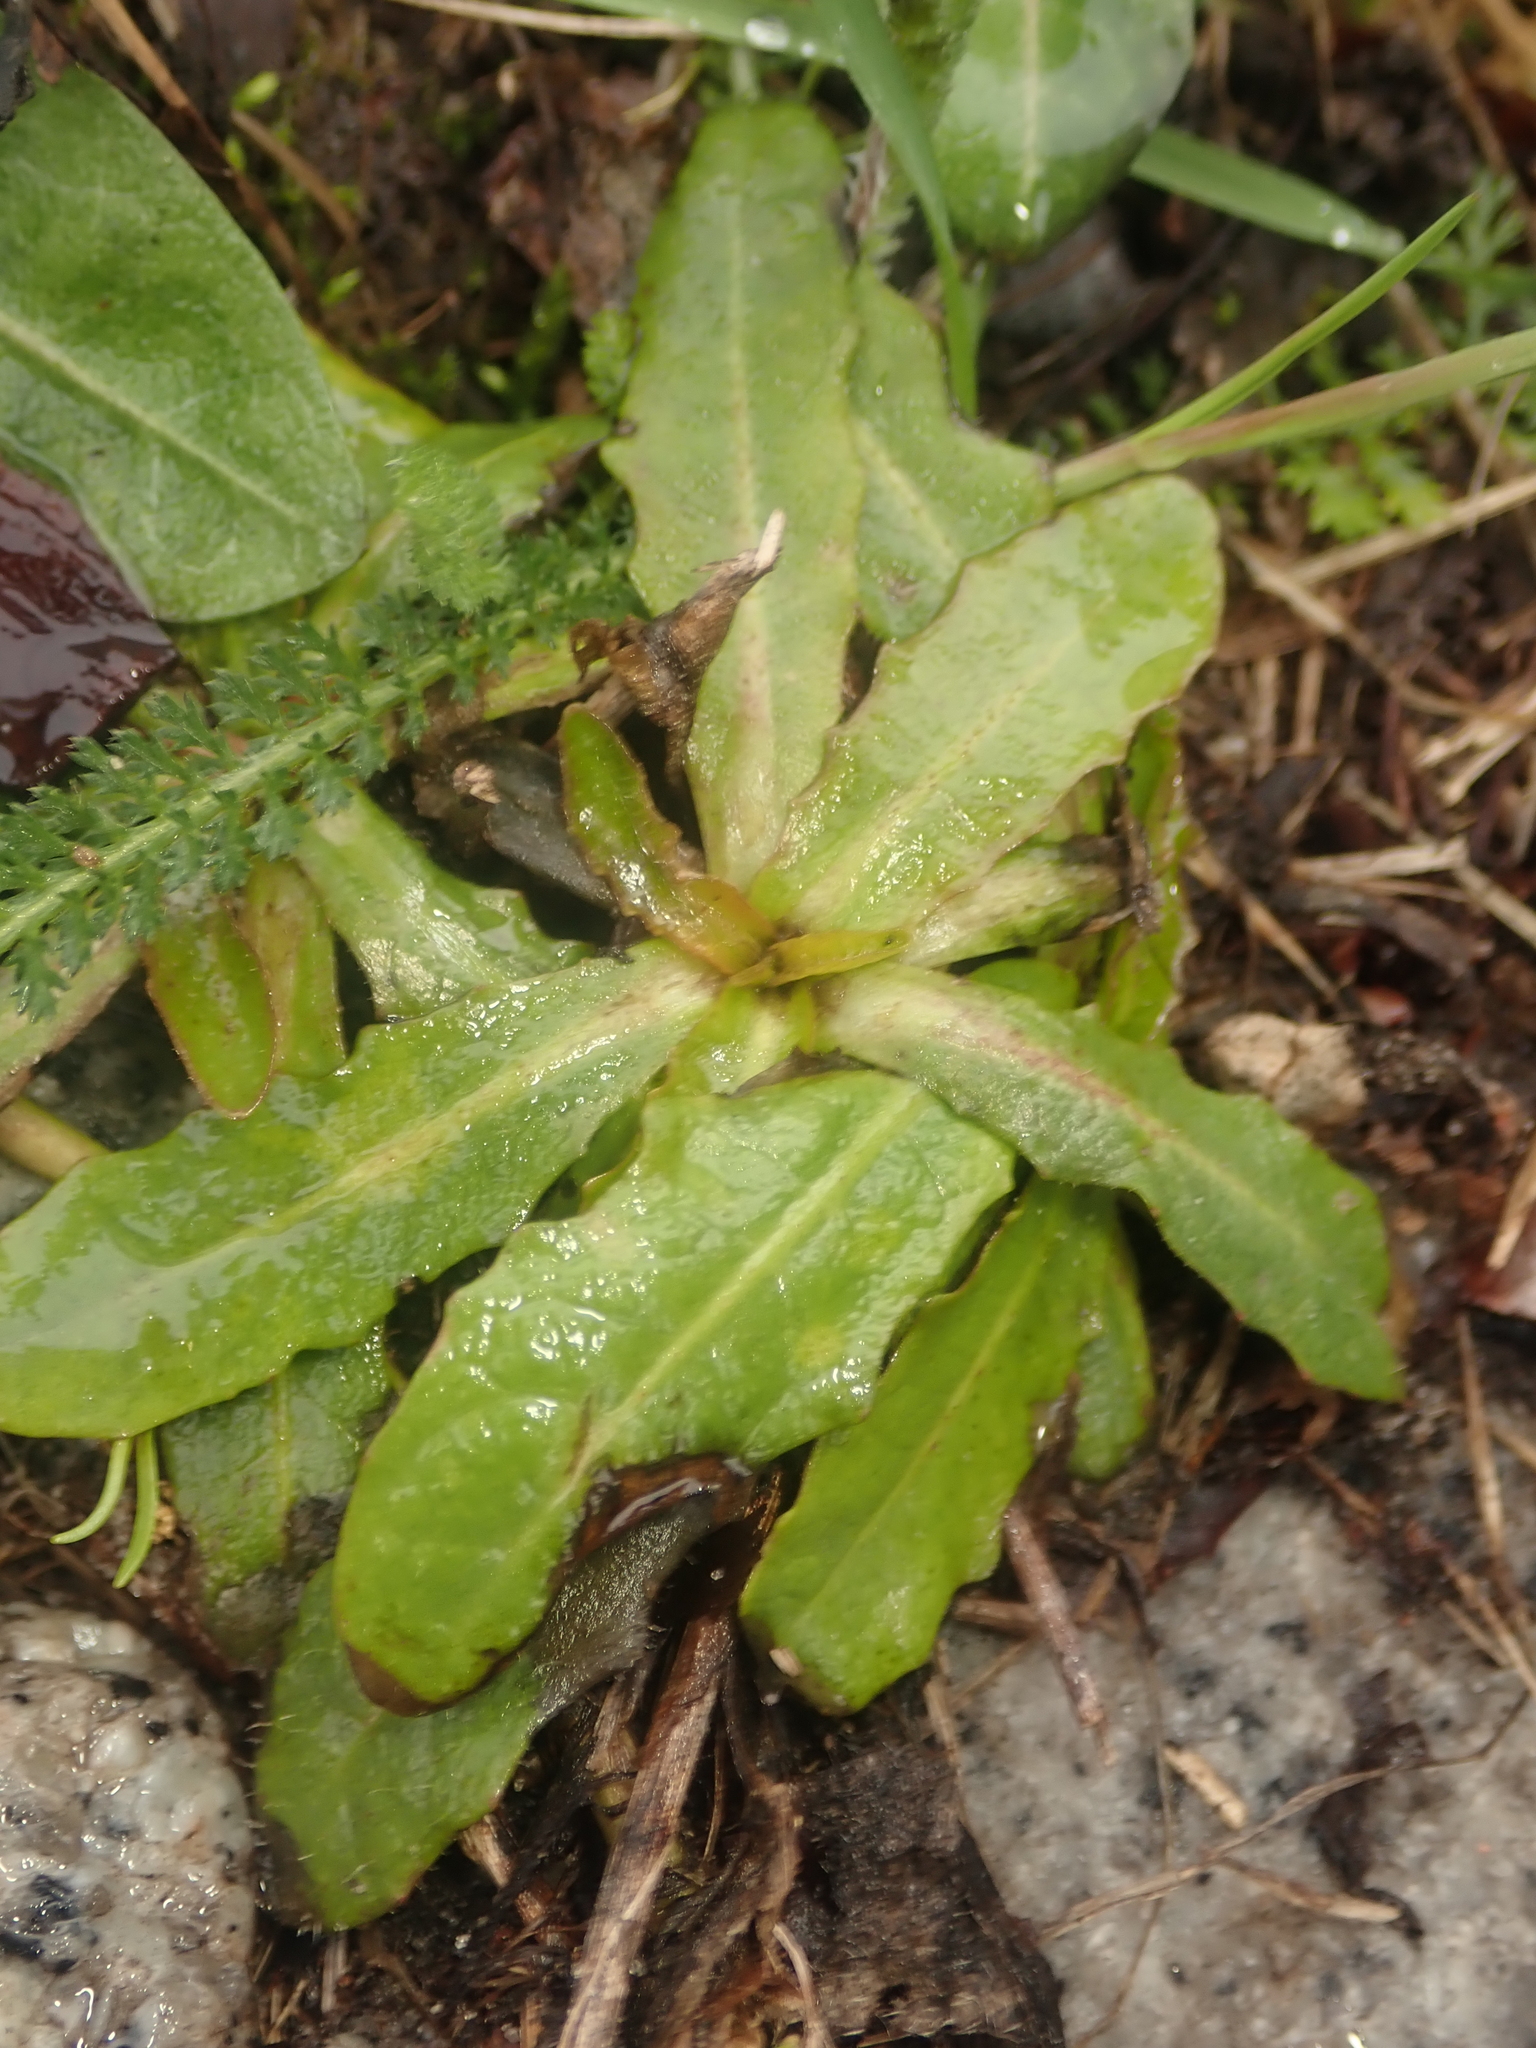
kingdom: Plantae
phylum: Tracheophyta
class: Magnoliopsida
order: Asterales
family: Asteraceae
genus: Hypochaeris
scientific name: Hypochaeris radicata
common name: Flatweed
